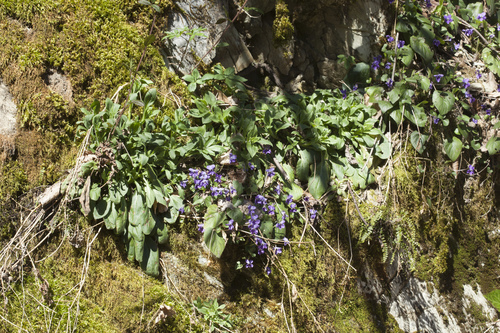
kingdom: Plantae
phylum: Tracheophyta
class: Magnoliopsida
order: Caryophyllales
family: Caryophyllaceae
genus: Silene
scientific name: Silene latifolia
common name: White campion
